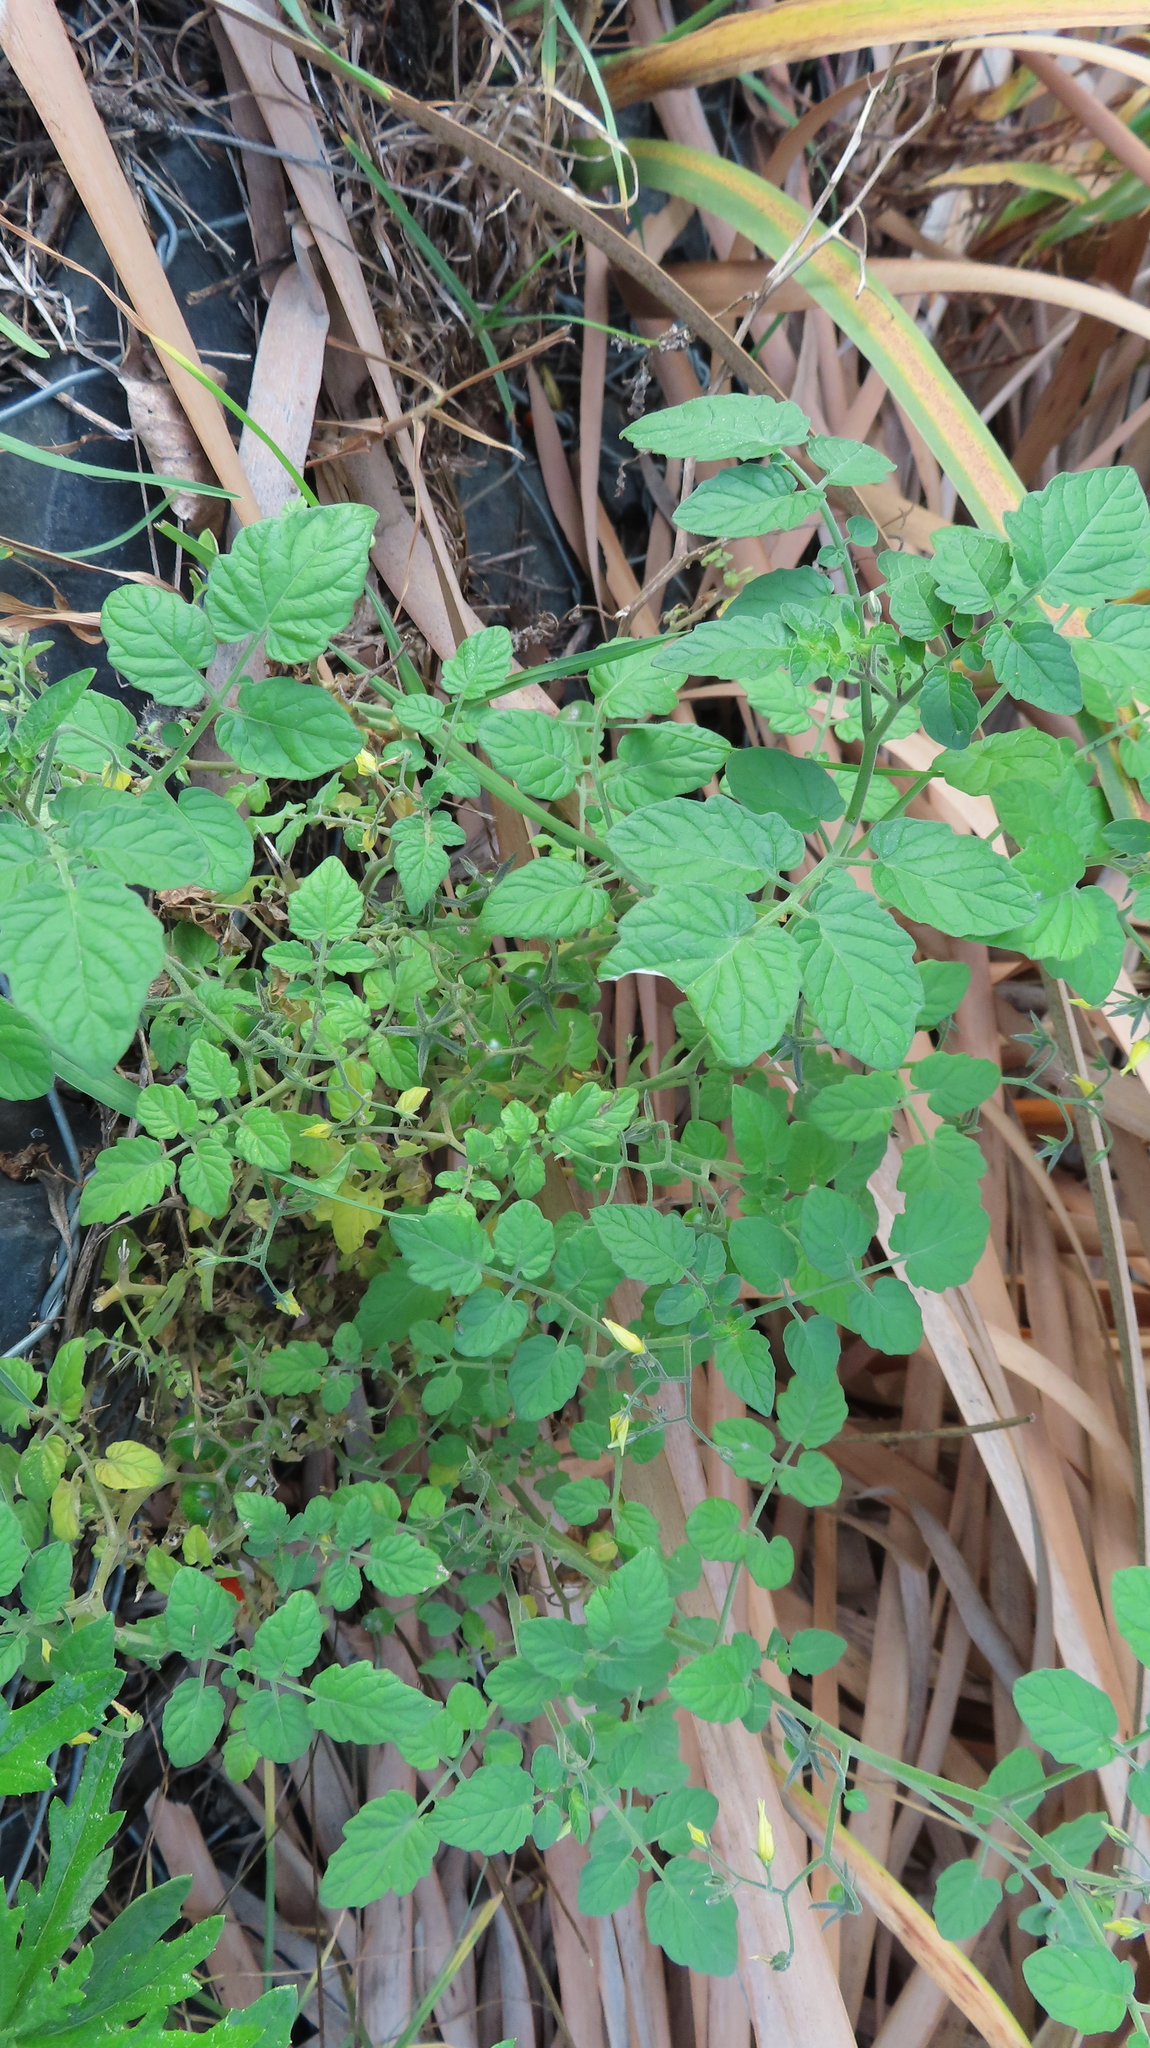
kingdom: Plantae
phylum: Tracheophyta
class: Magnoliopsida
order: Solanales
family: Solanaceae
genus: Solanum
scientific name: Solanum lycopersicum
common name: Garden tomato
